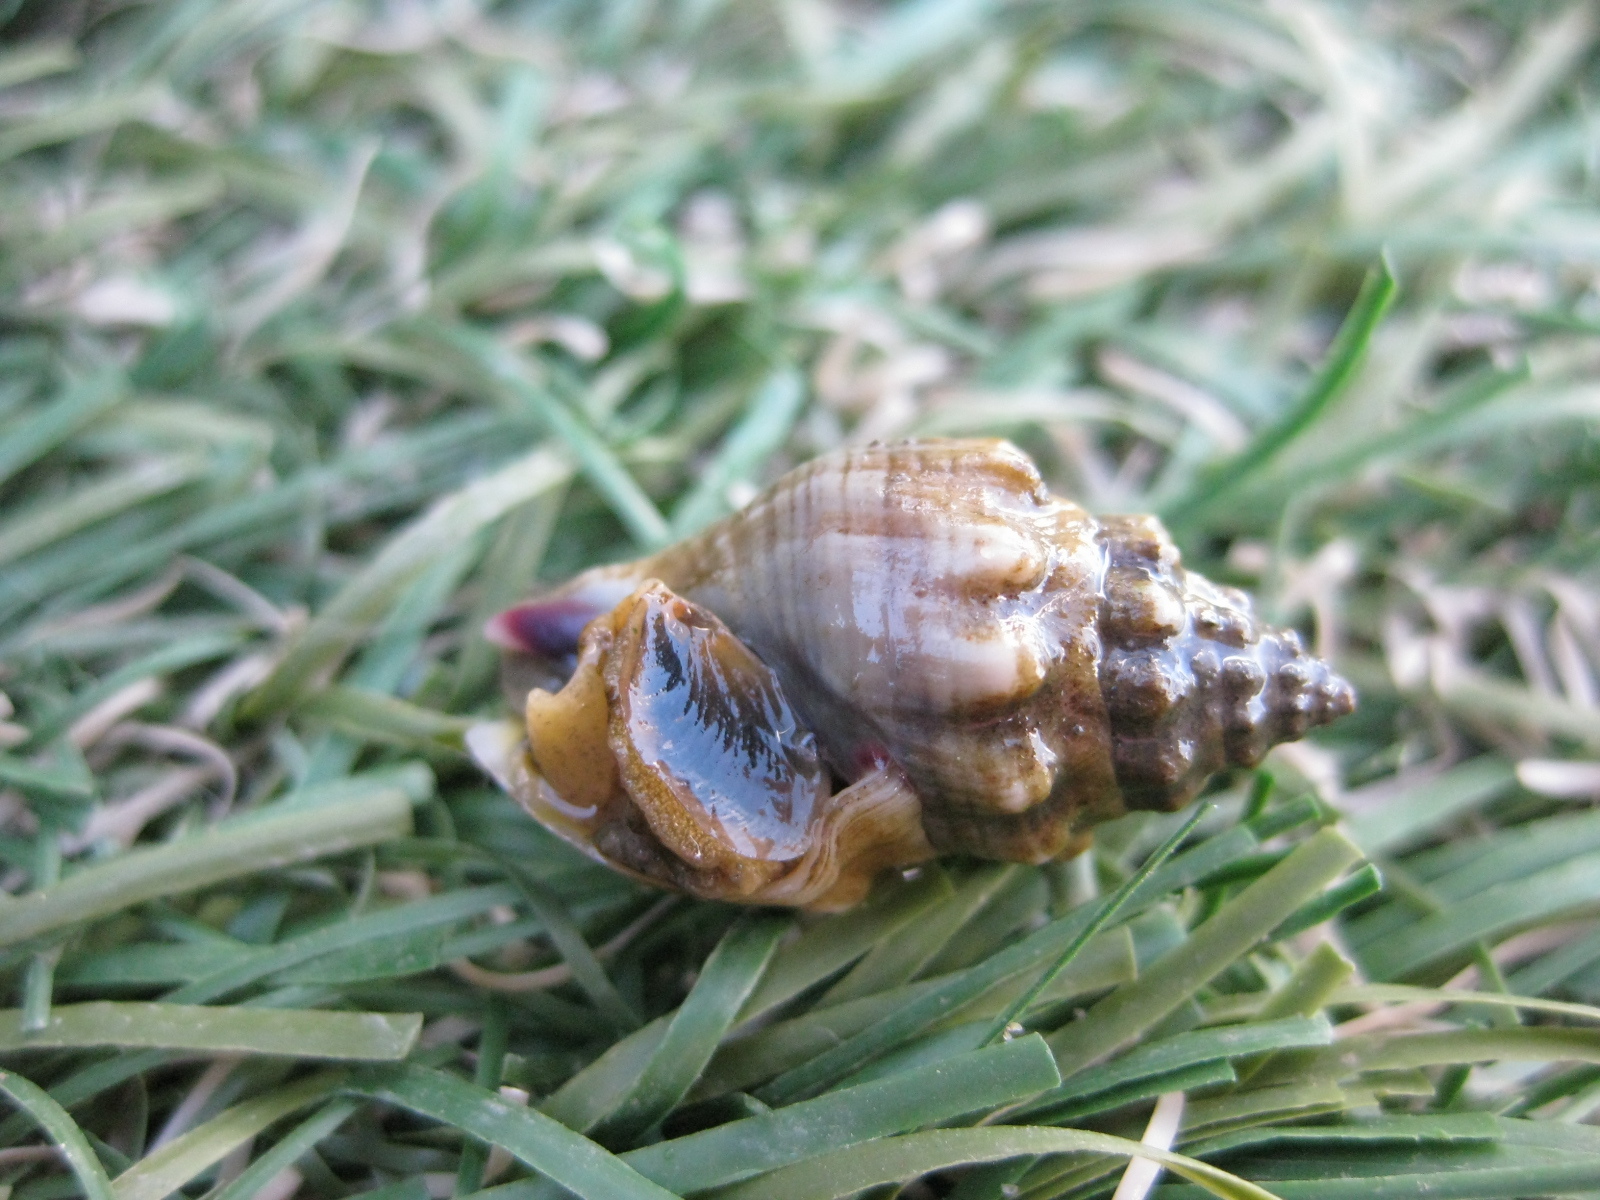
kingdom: Animalia
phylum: Mollusca
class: Gastropoda
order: Neogastropoda
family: Cominellidae
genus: Cominella
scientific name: Cominella glandiformis
